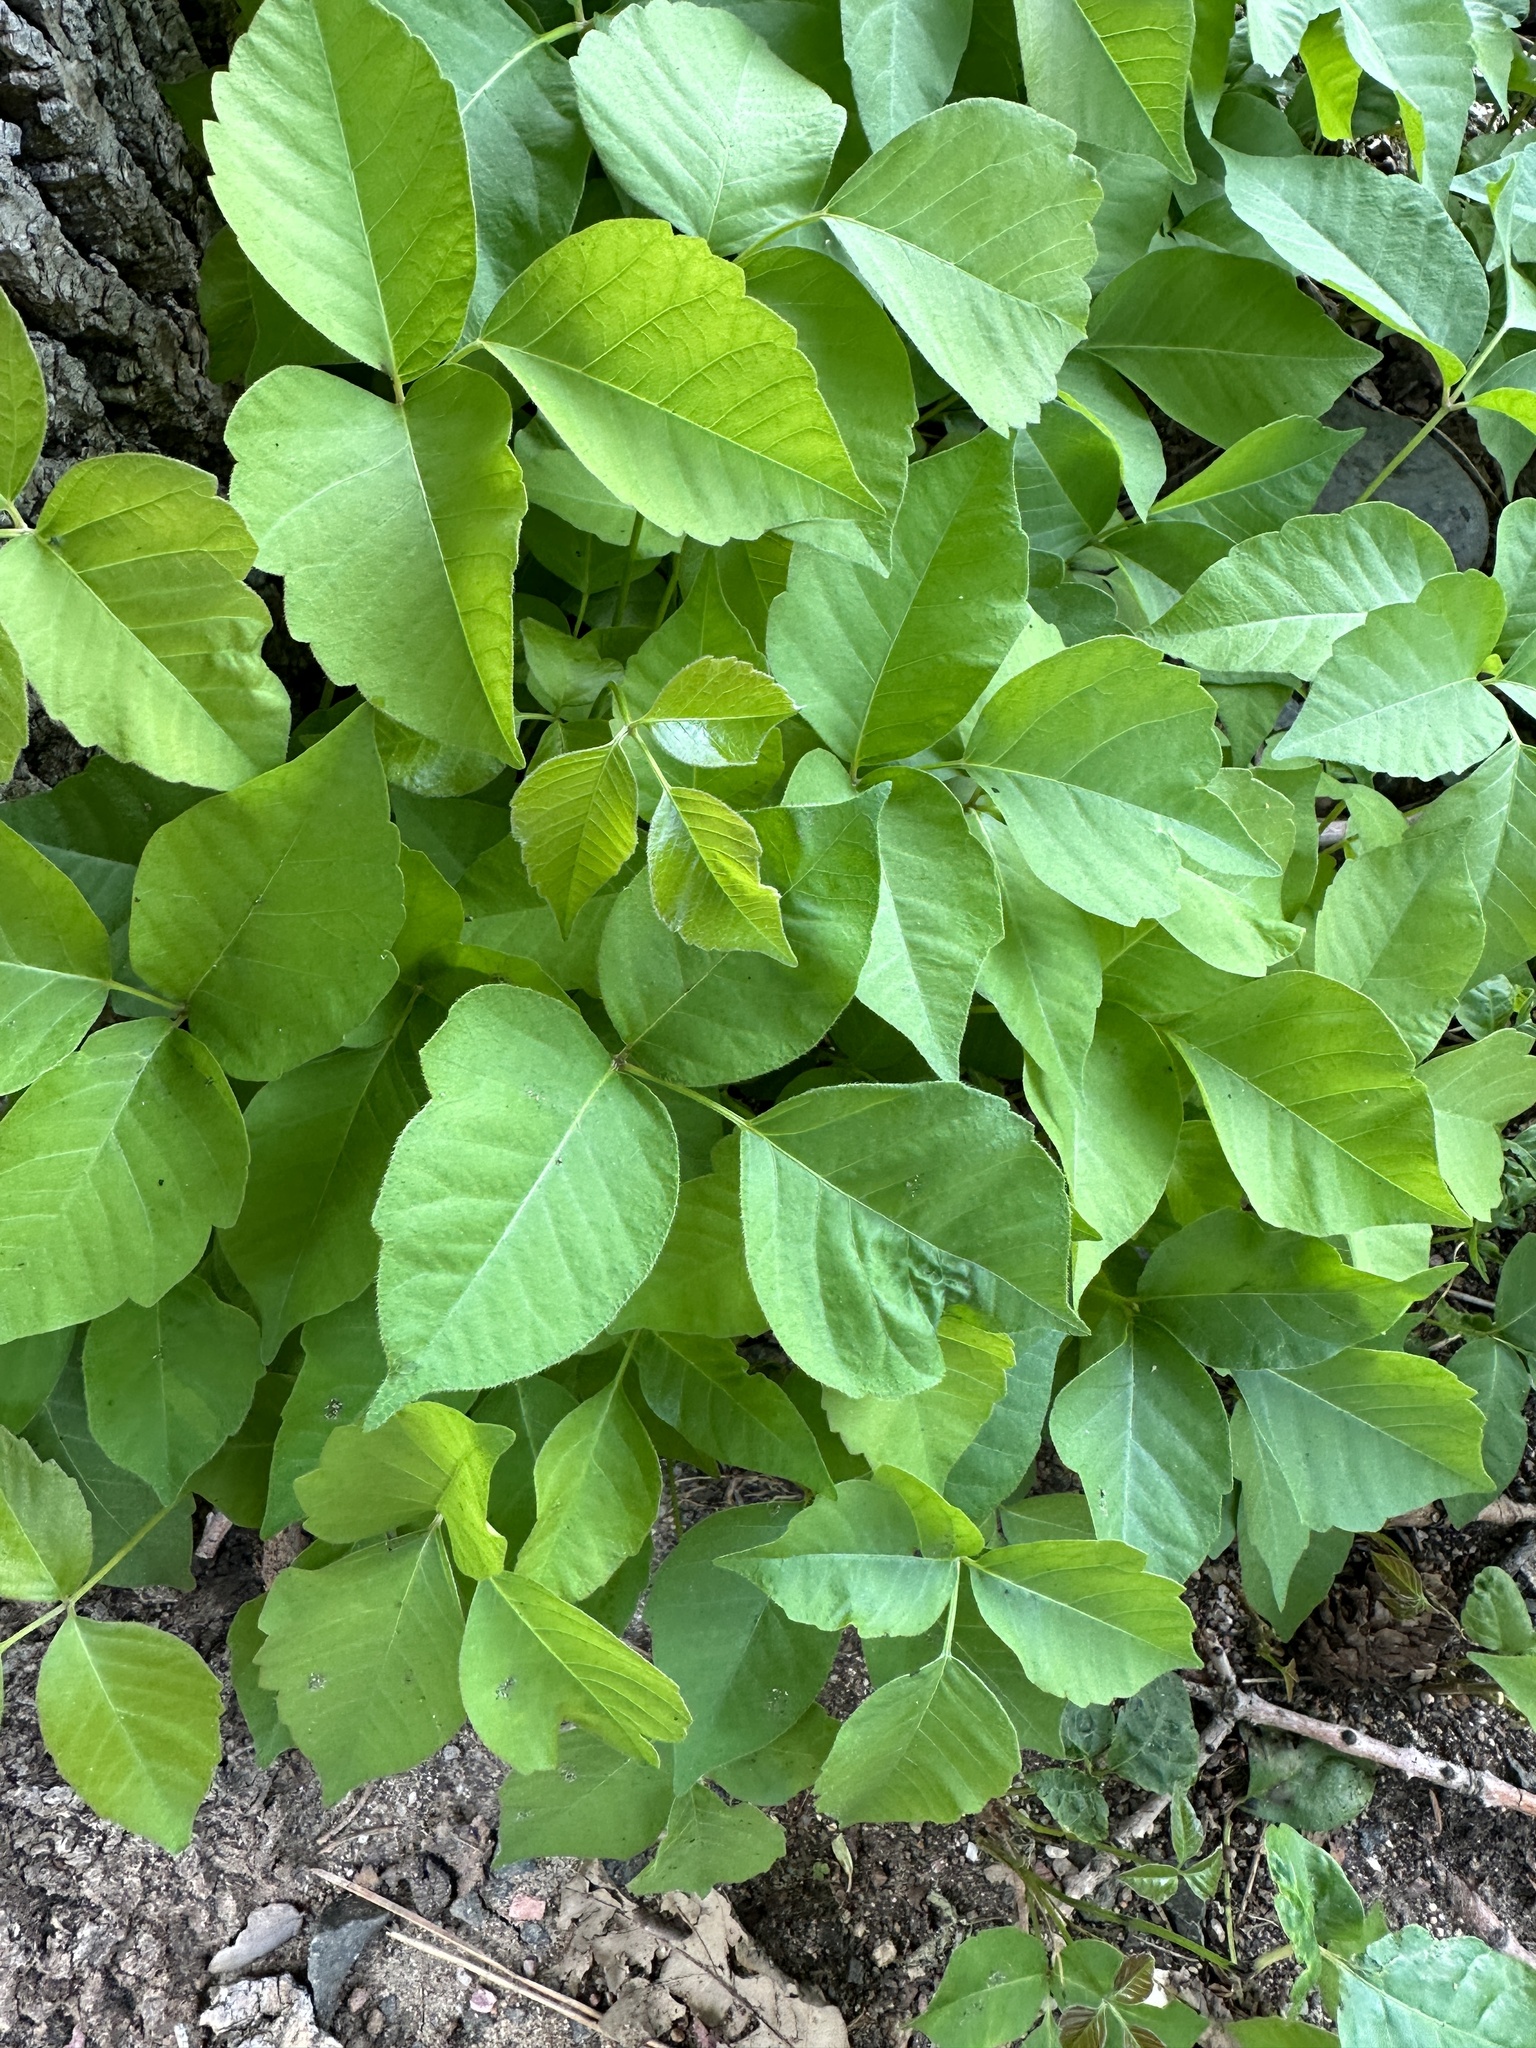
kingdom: Plantae
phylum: Tracheophyta
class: Magnoliopsida
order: Sapindales
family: Anacardiaceae
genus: Toxicodendron
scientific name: Toxicodendron rydbergii
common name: Rydberg's poison-ivy
